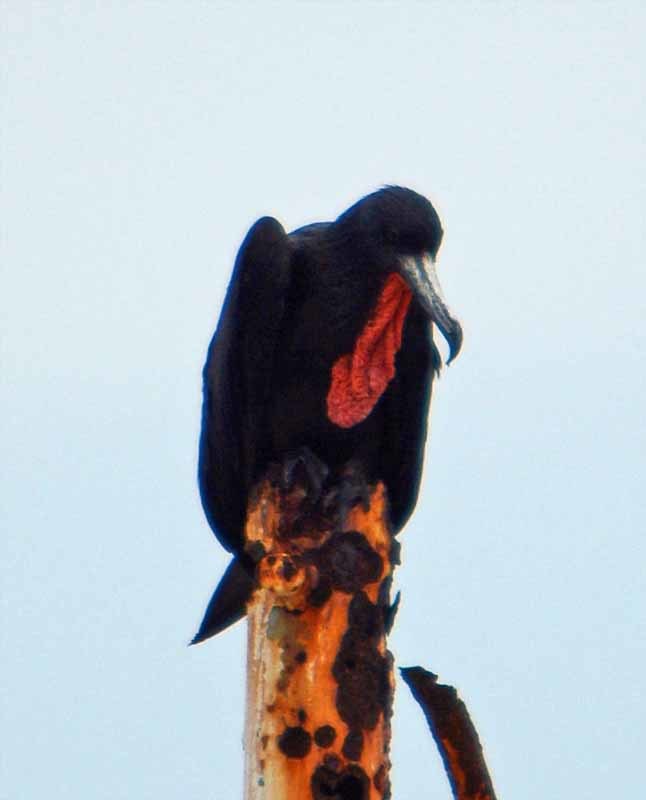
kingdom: Animalia
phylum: Chordata
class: Aves
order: Suliformes
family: Fregatidae
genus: Fregata
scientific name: Fregata magnificens
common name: Magnificent frigatebird
